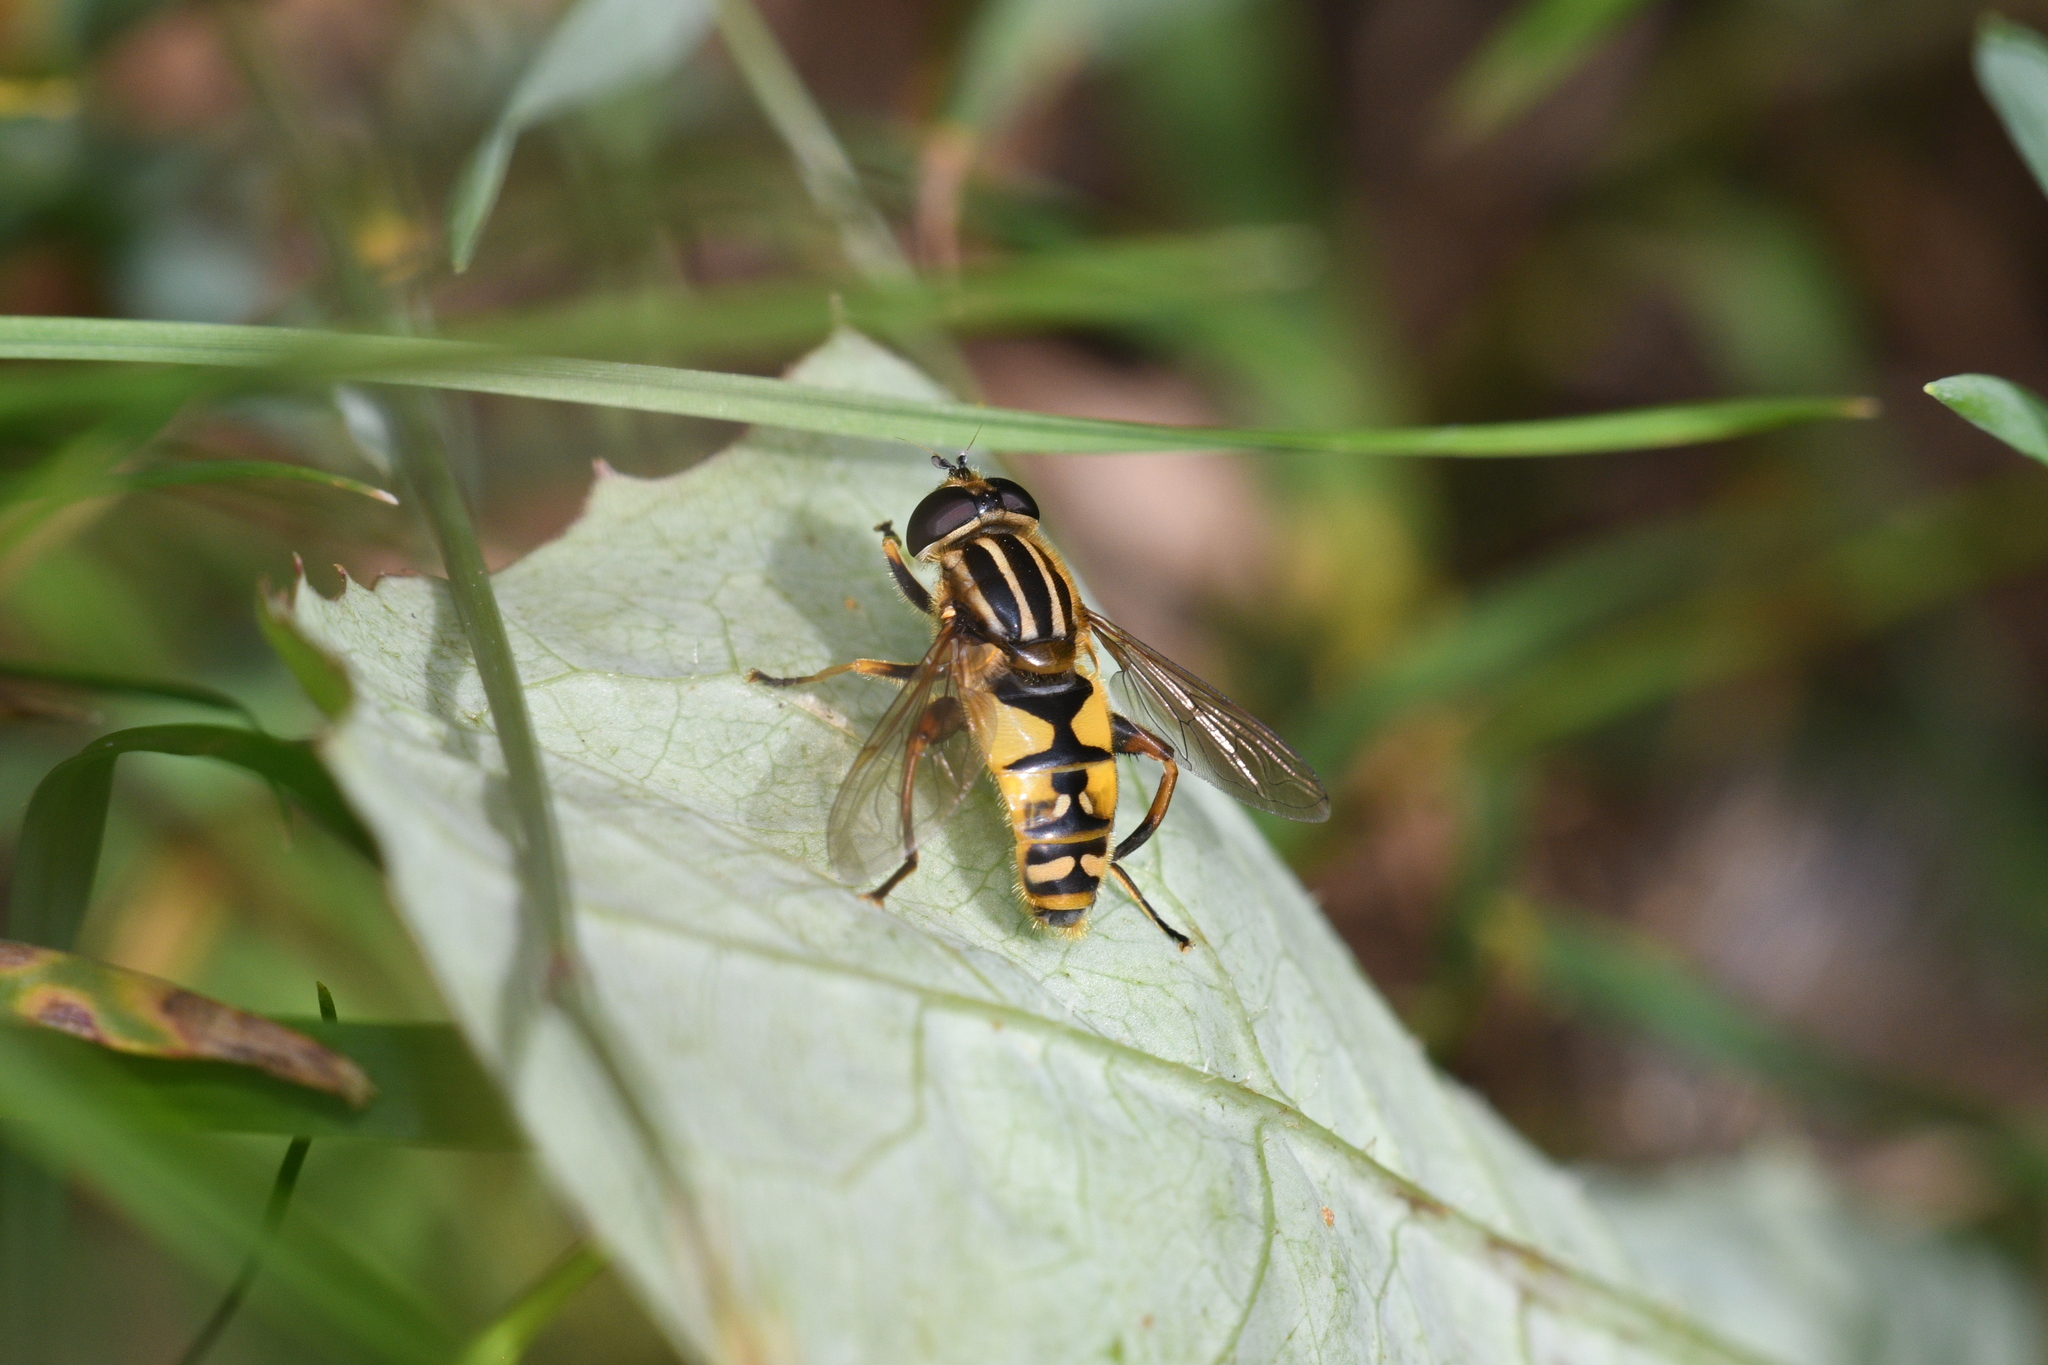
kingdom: Animalia
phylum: Arthropoda
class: Insecta
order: Diptera
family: Syrphidae
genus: Helophilus
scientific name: Helophilus pendulus
